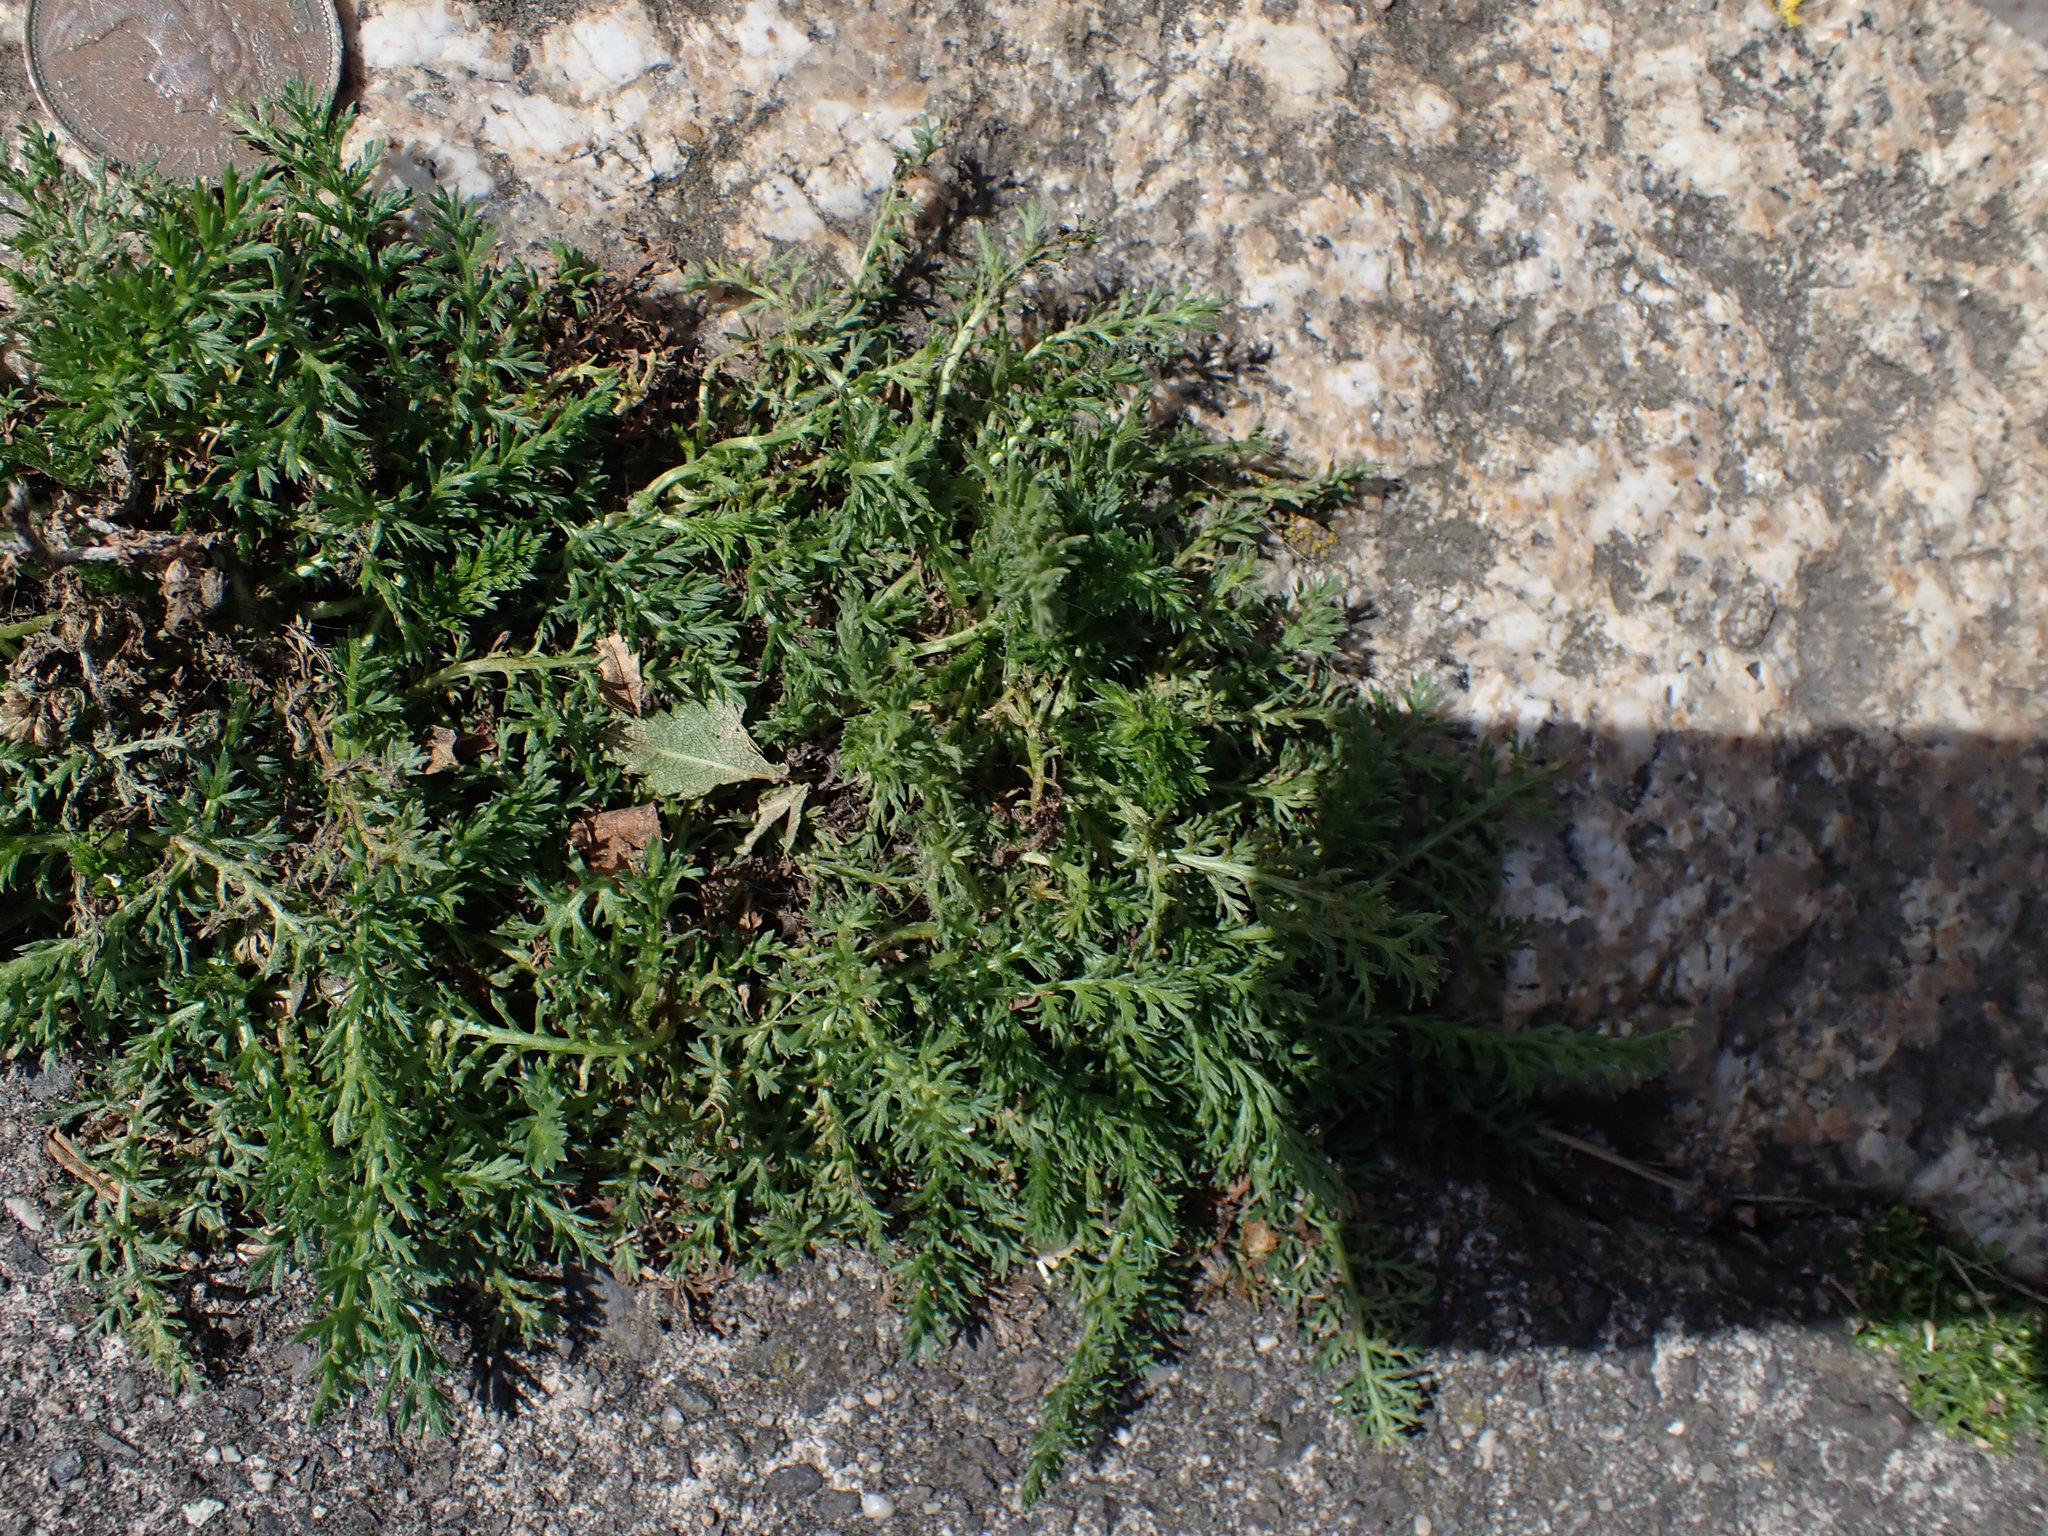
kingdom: Plantae
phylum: Tracheophyta
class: Magnoliopsida
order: Asterales
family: Asteraceae
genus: Achillea
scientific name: Achillea millefolium
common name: Yarrow
